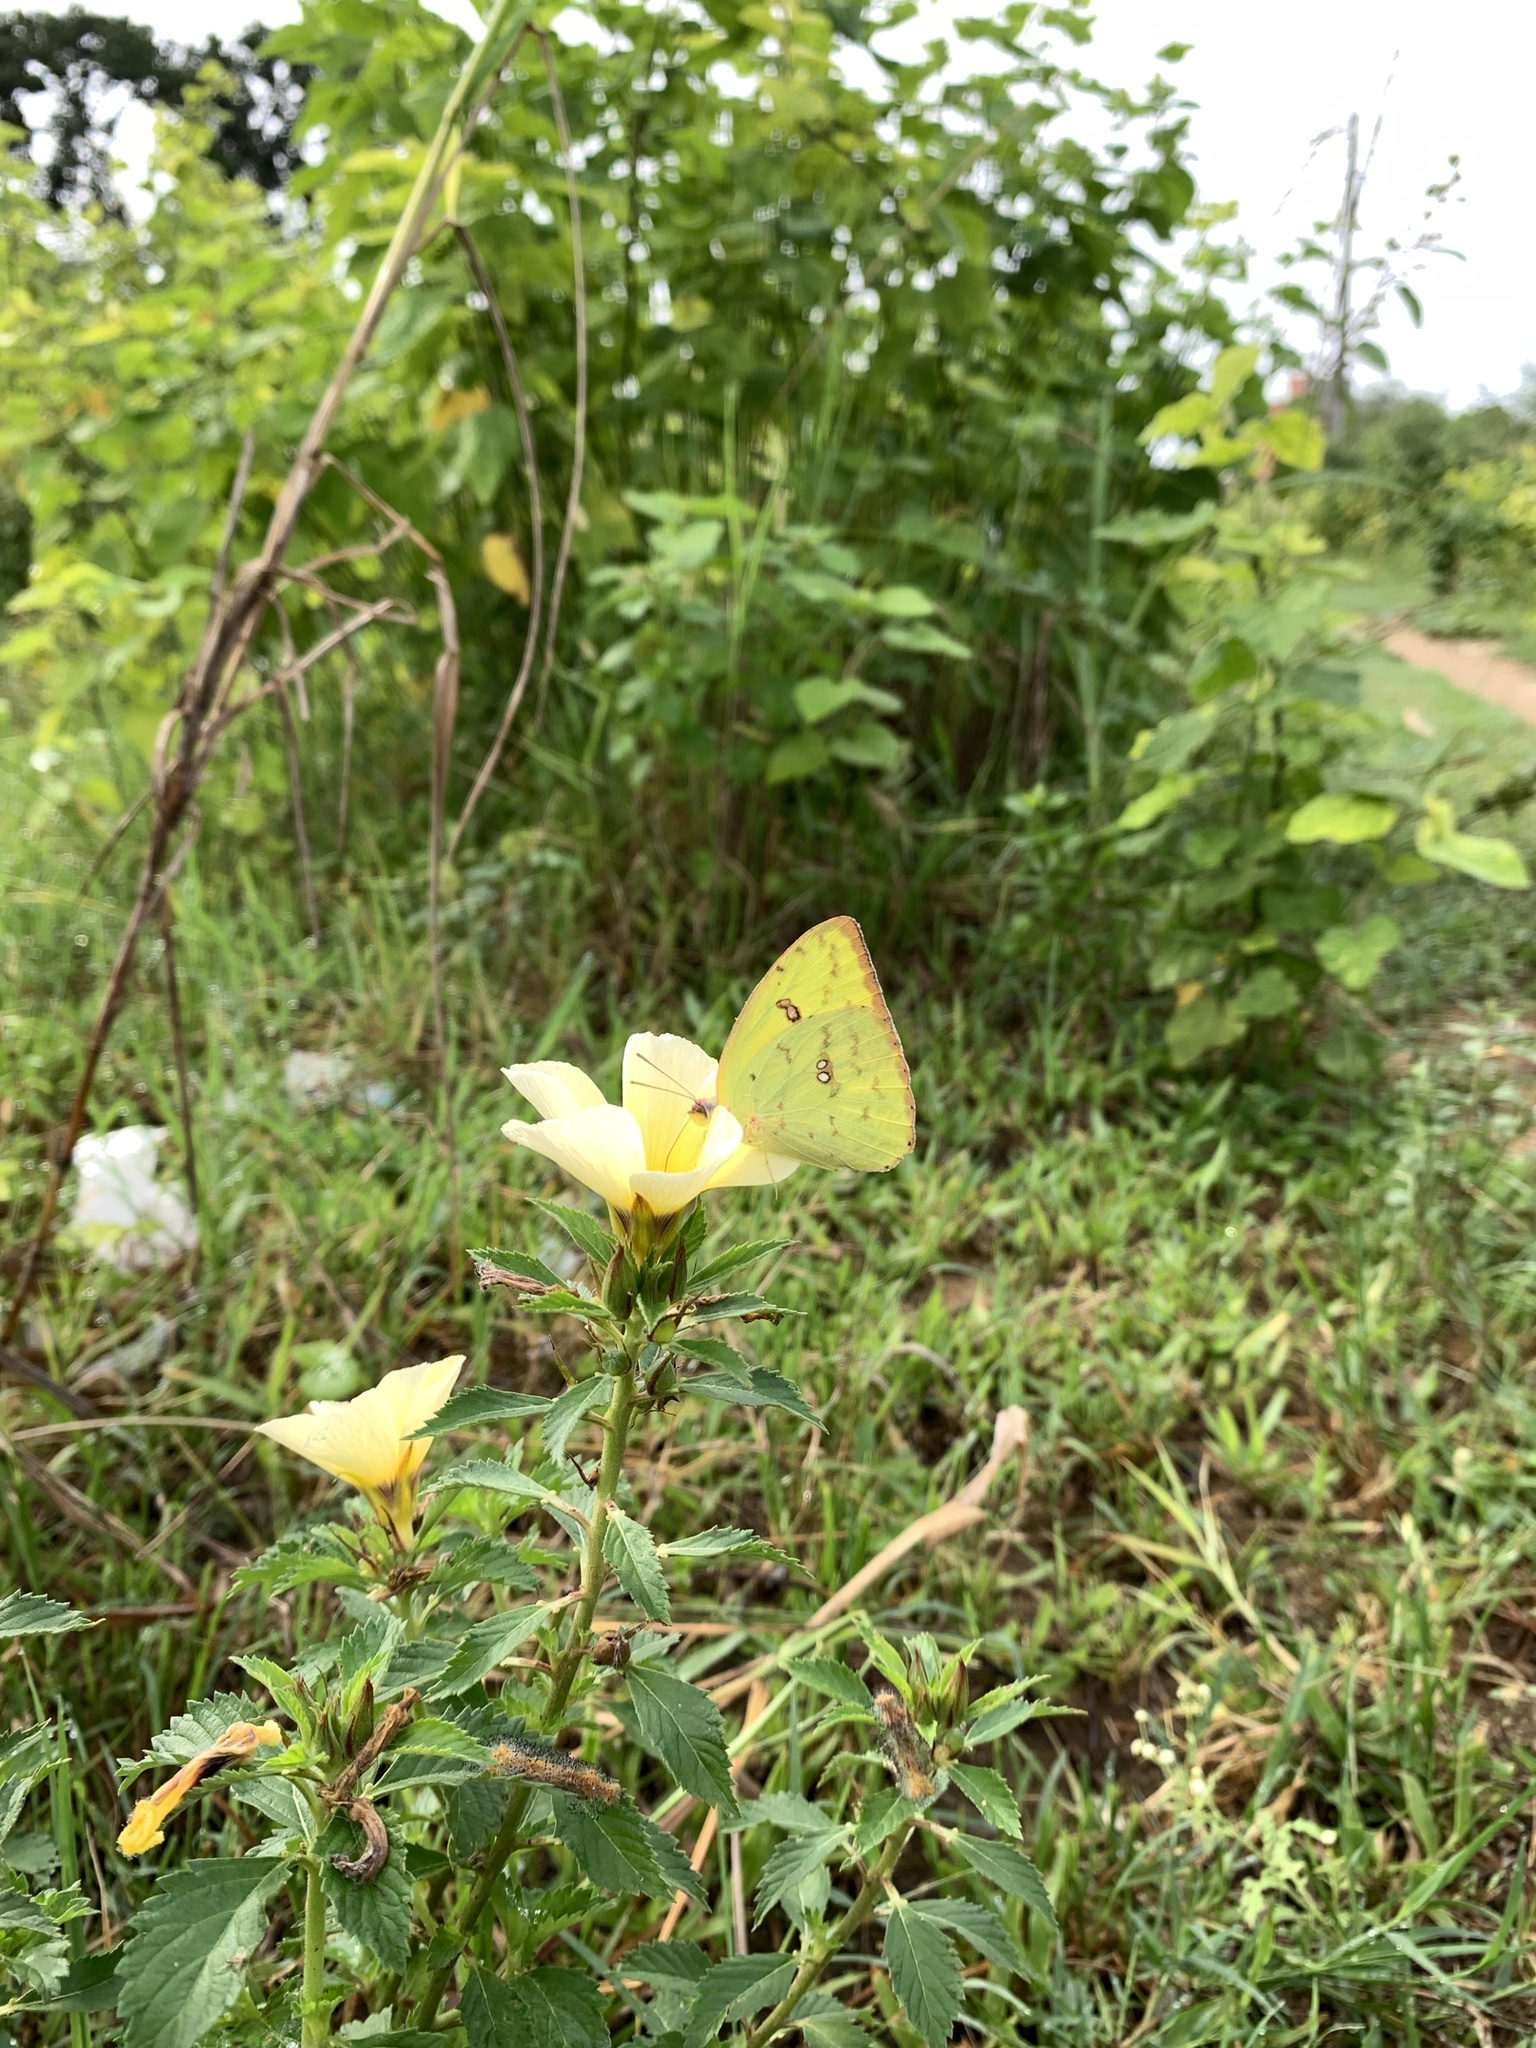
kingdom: Animalia
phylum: Arthropoda
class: Insecta
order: Lepidoptera
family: Pieridae
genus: Phoebis
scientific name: Phoebis marcellina
